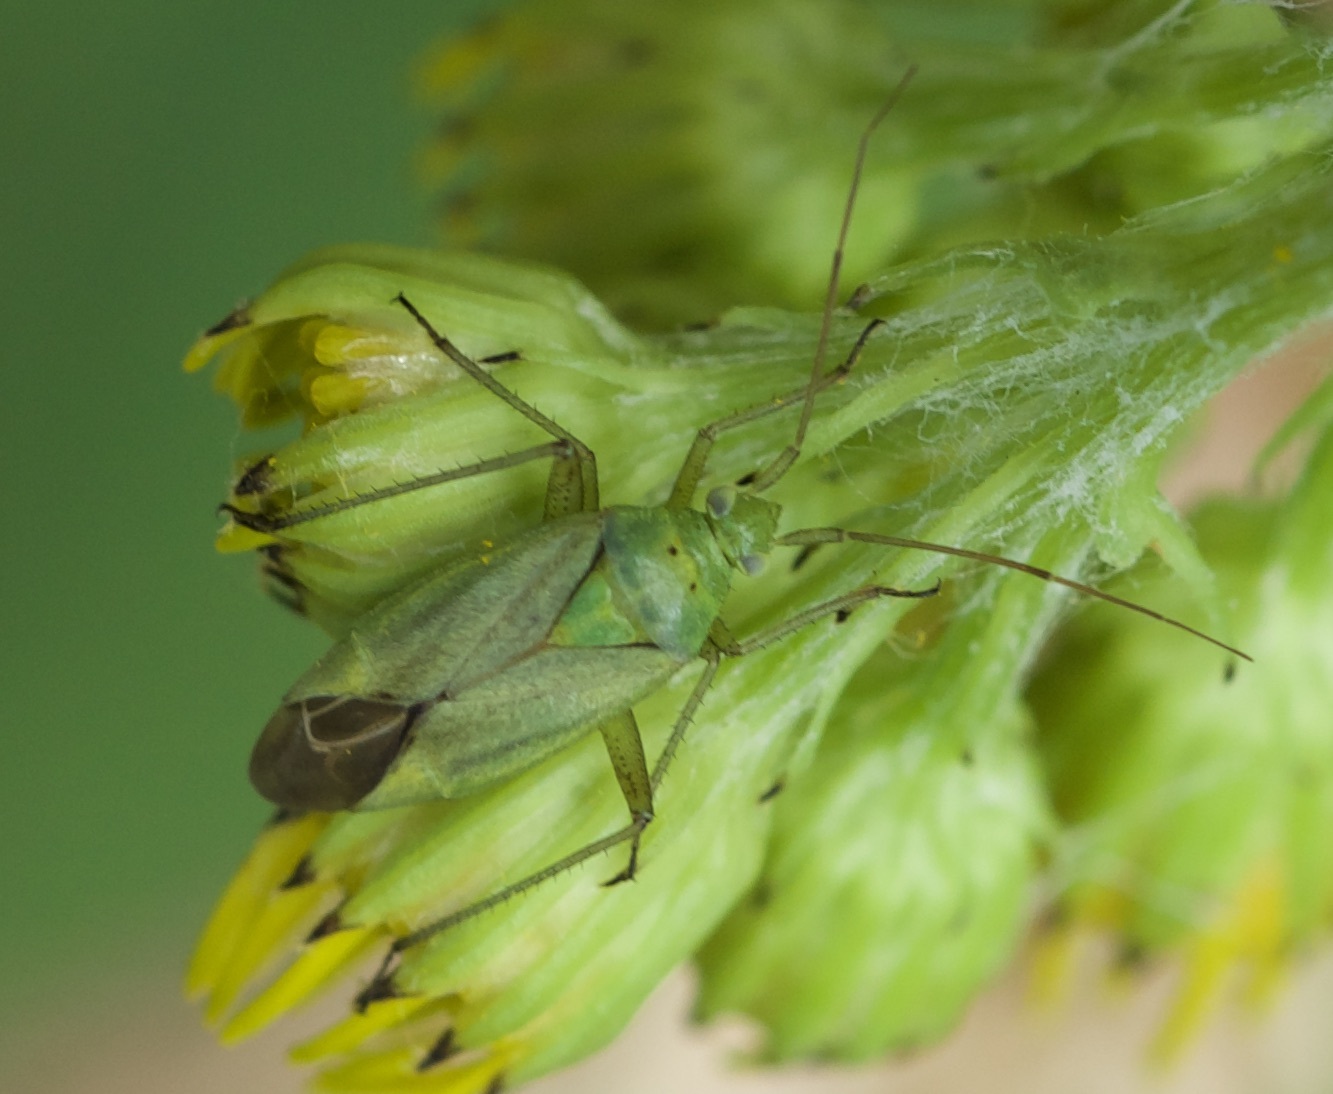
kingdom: Animalia
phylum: Arthropoda
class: Insecta
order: Hemiptera
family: Miridae
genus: Closterotomus
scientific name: Closterotomus norvegicus
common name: Plant bug
